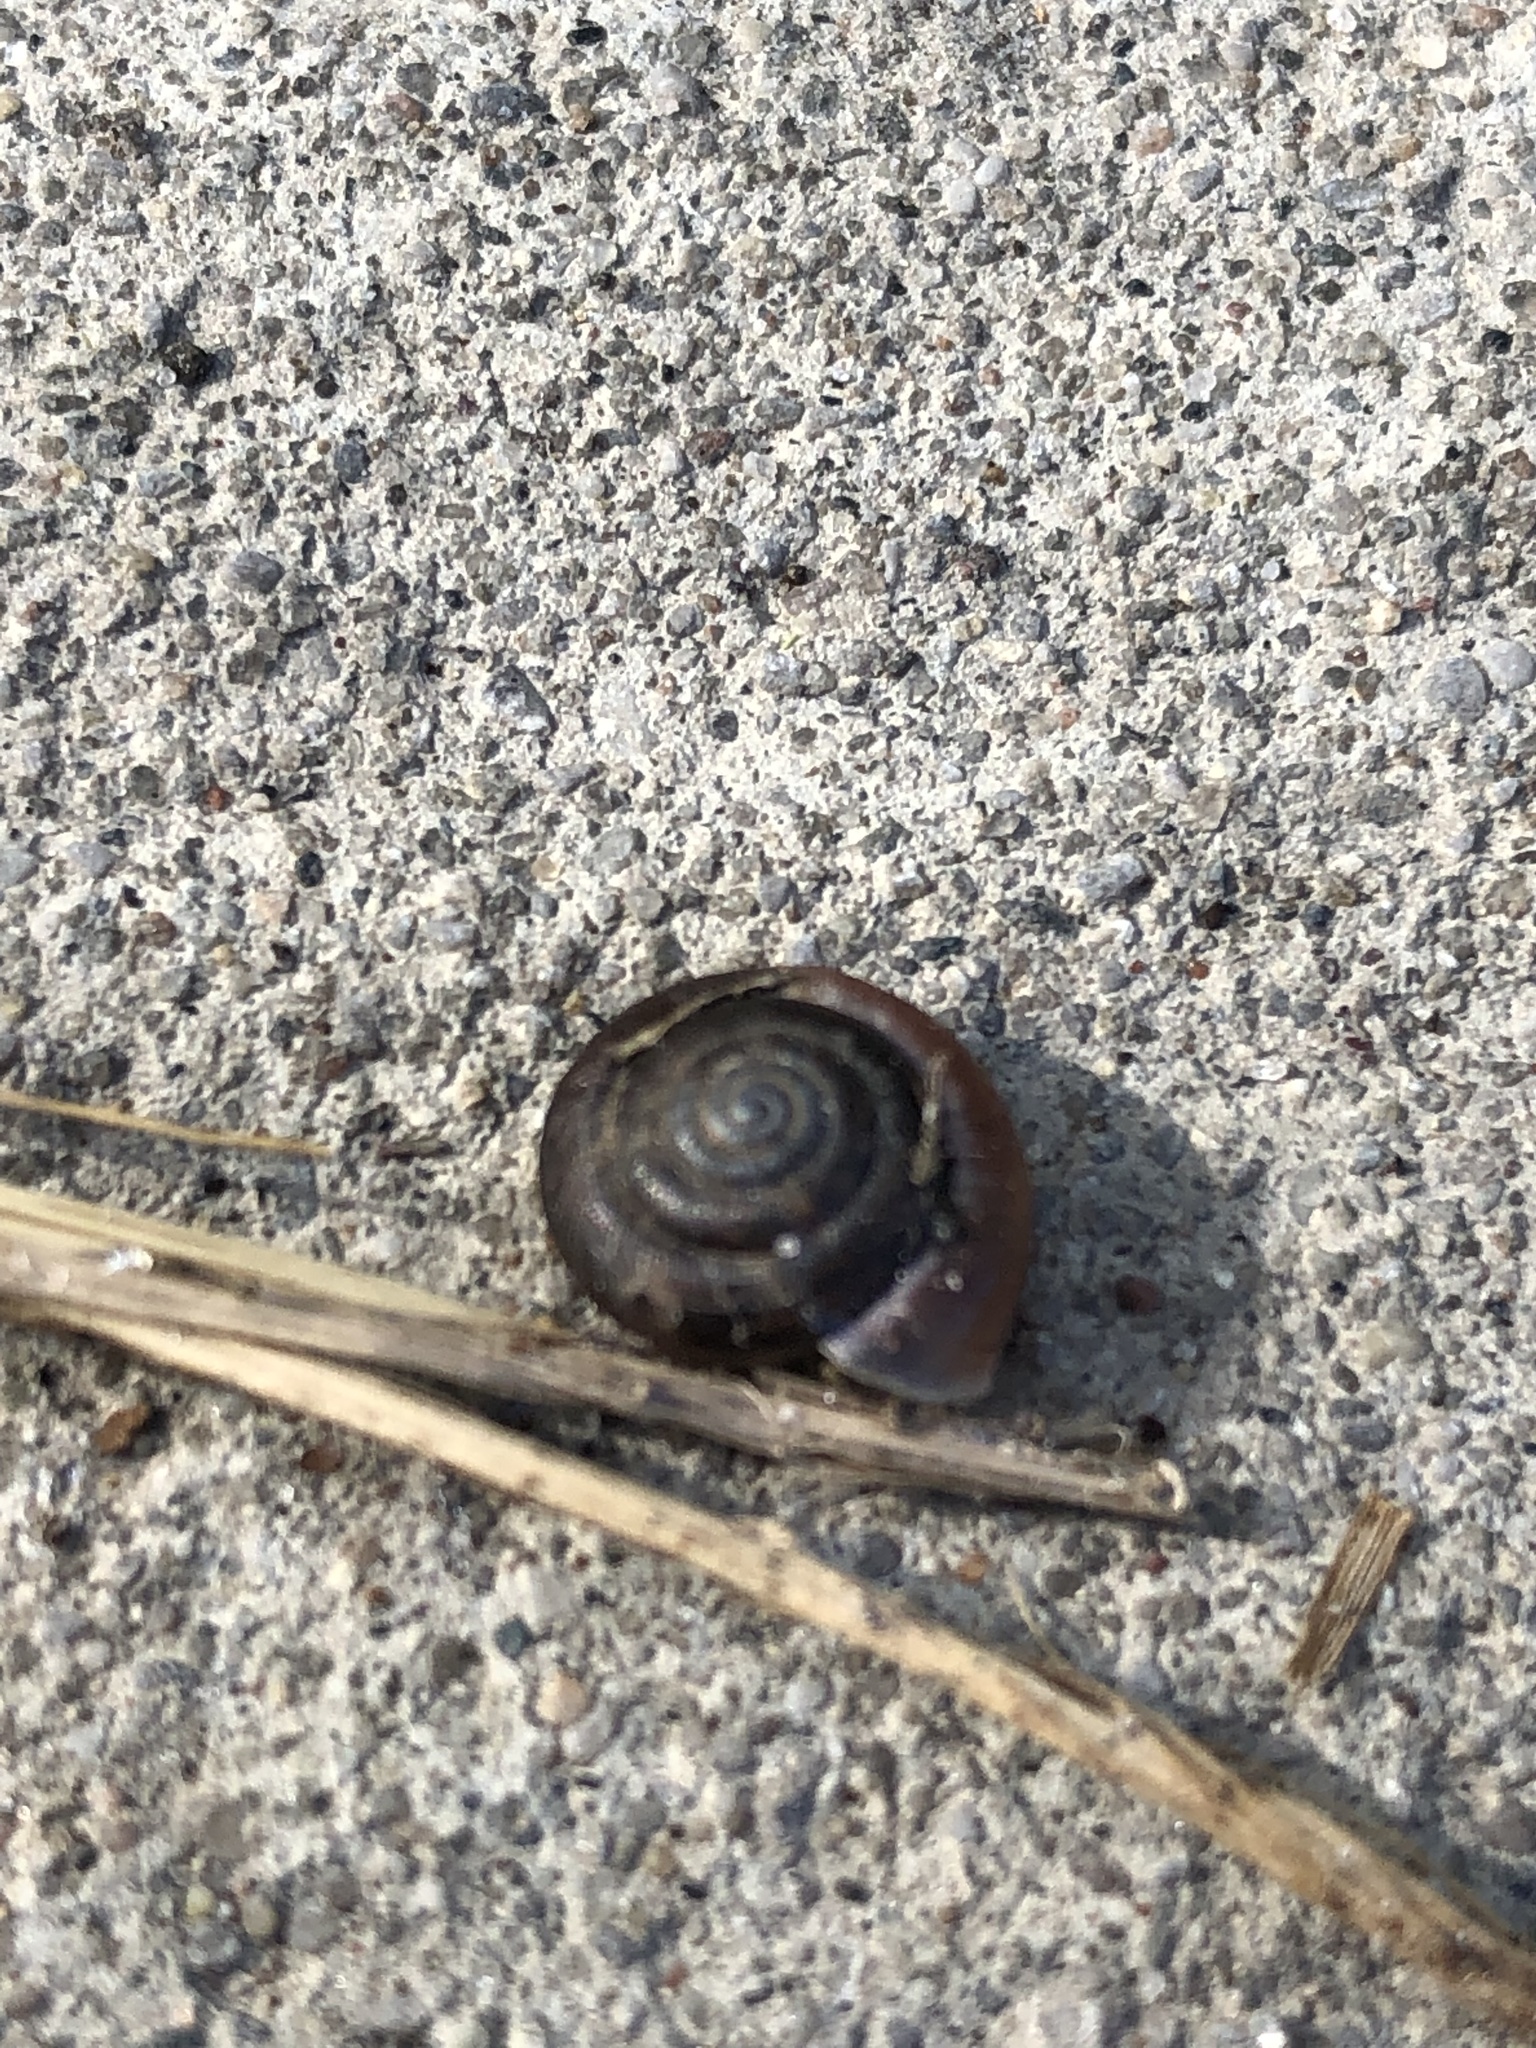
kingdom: Animalia
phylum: Mollusca
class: Gastropoda
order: Stylommatophora
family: Hygromiidae
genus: Trochulus
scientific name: Trochulus striolatus
